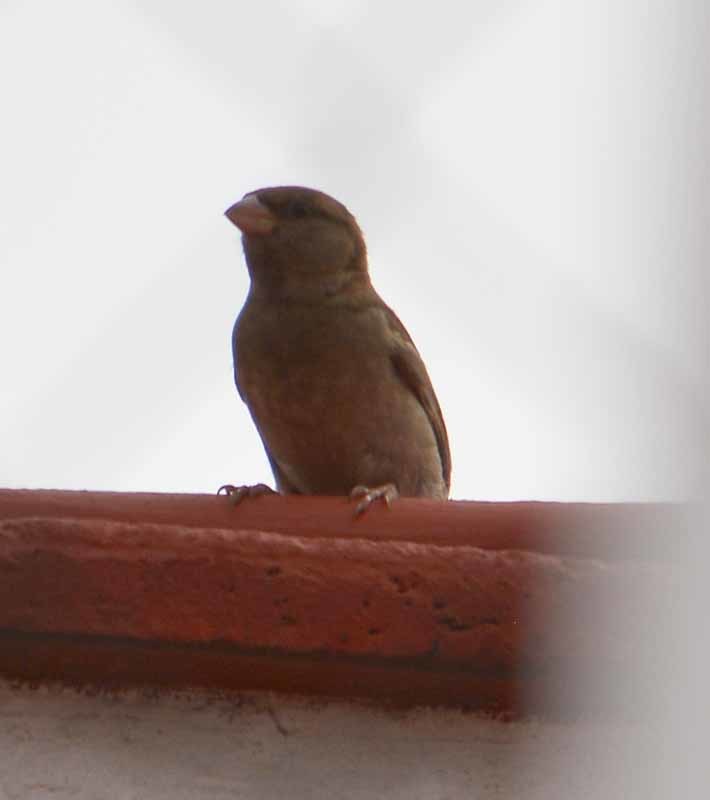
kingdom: Animalia
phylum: Chordata
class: Aves
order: Passeriformes
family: Passeridae
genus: Passer
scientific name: Passer domesticus
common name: House sparrow
